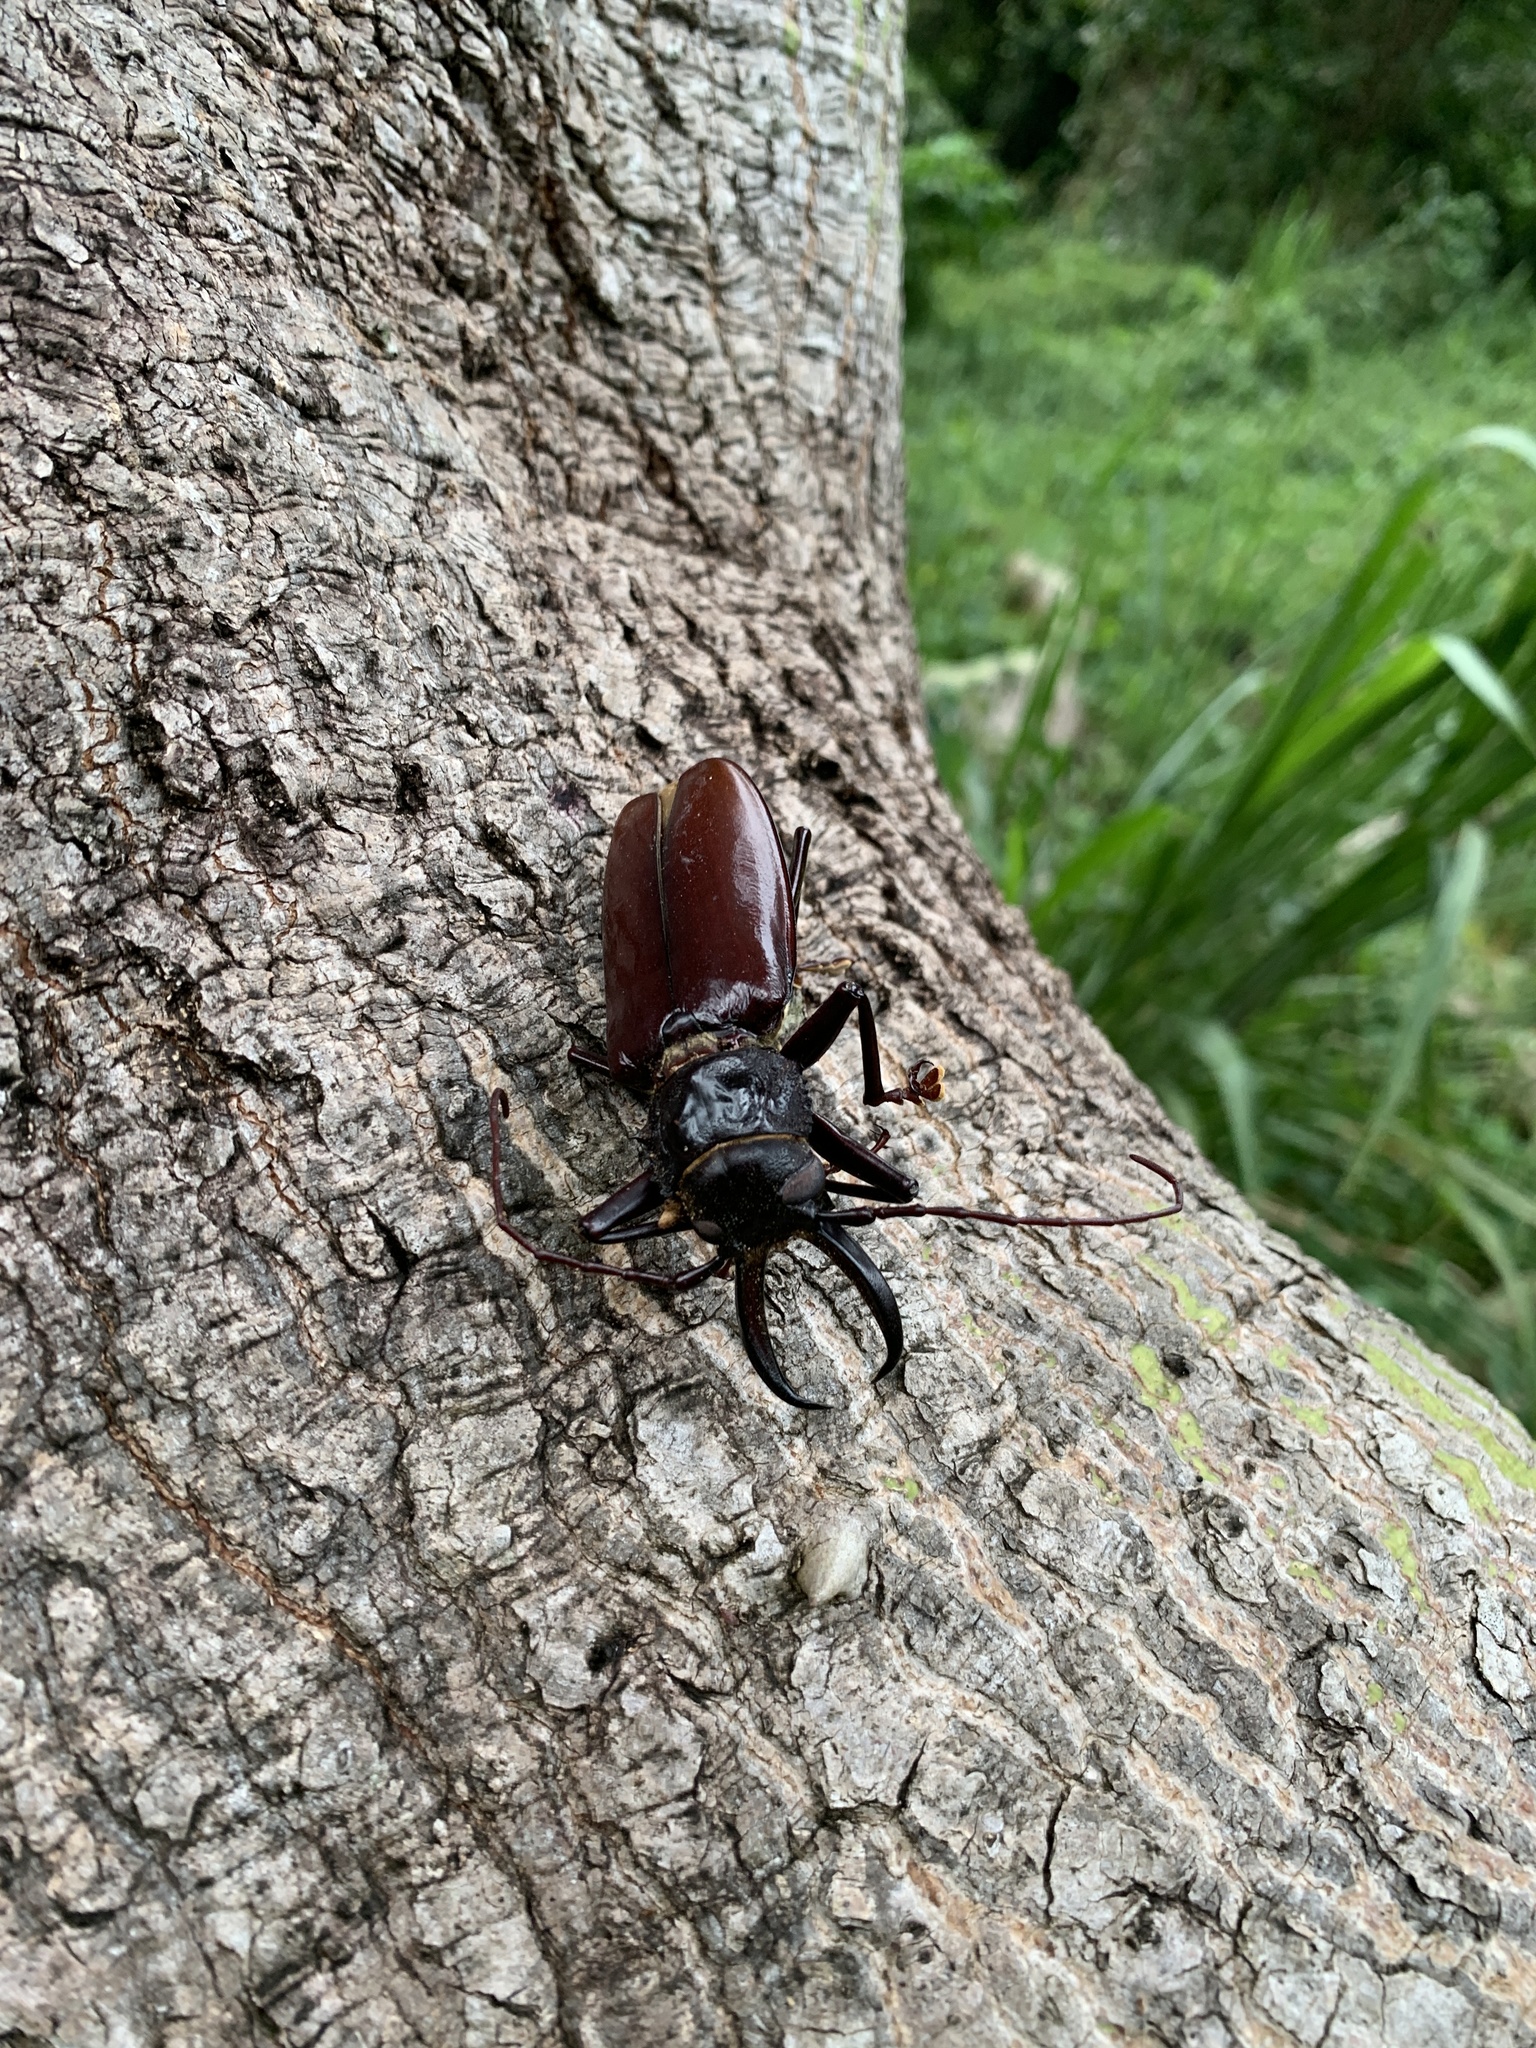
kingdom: Animalia
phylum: Arthropoda
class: Insecta
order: Coleoptera
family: Cerambycidae
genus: Stenodontes
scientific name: Stenodontes exsertus
